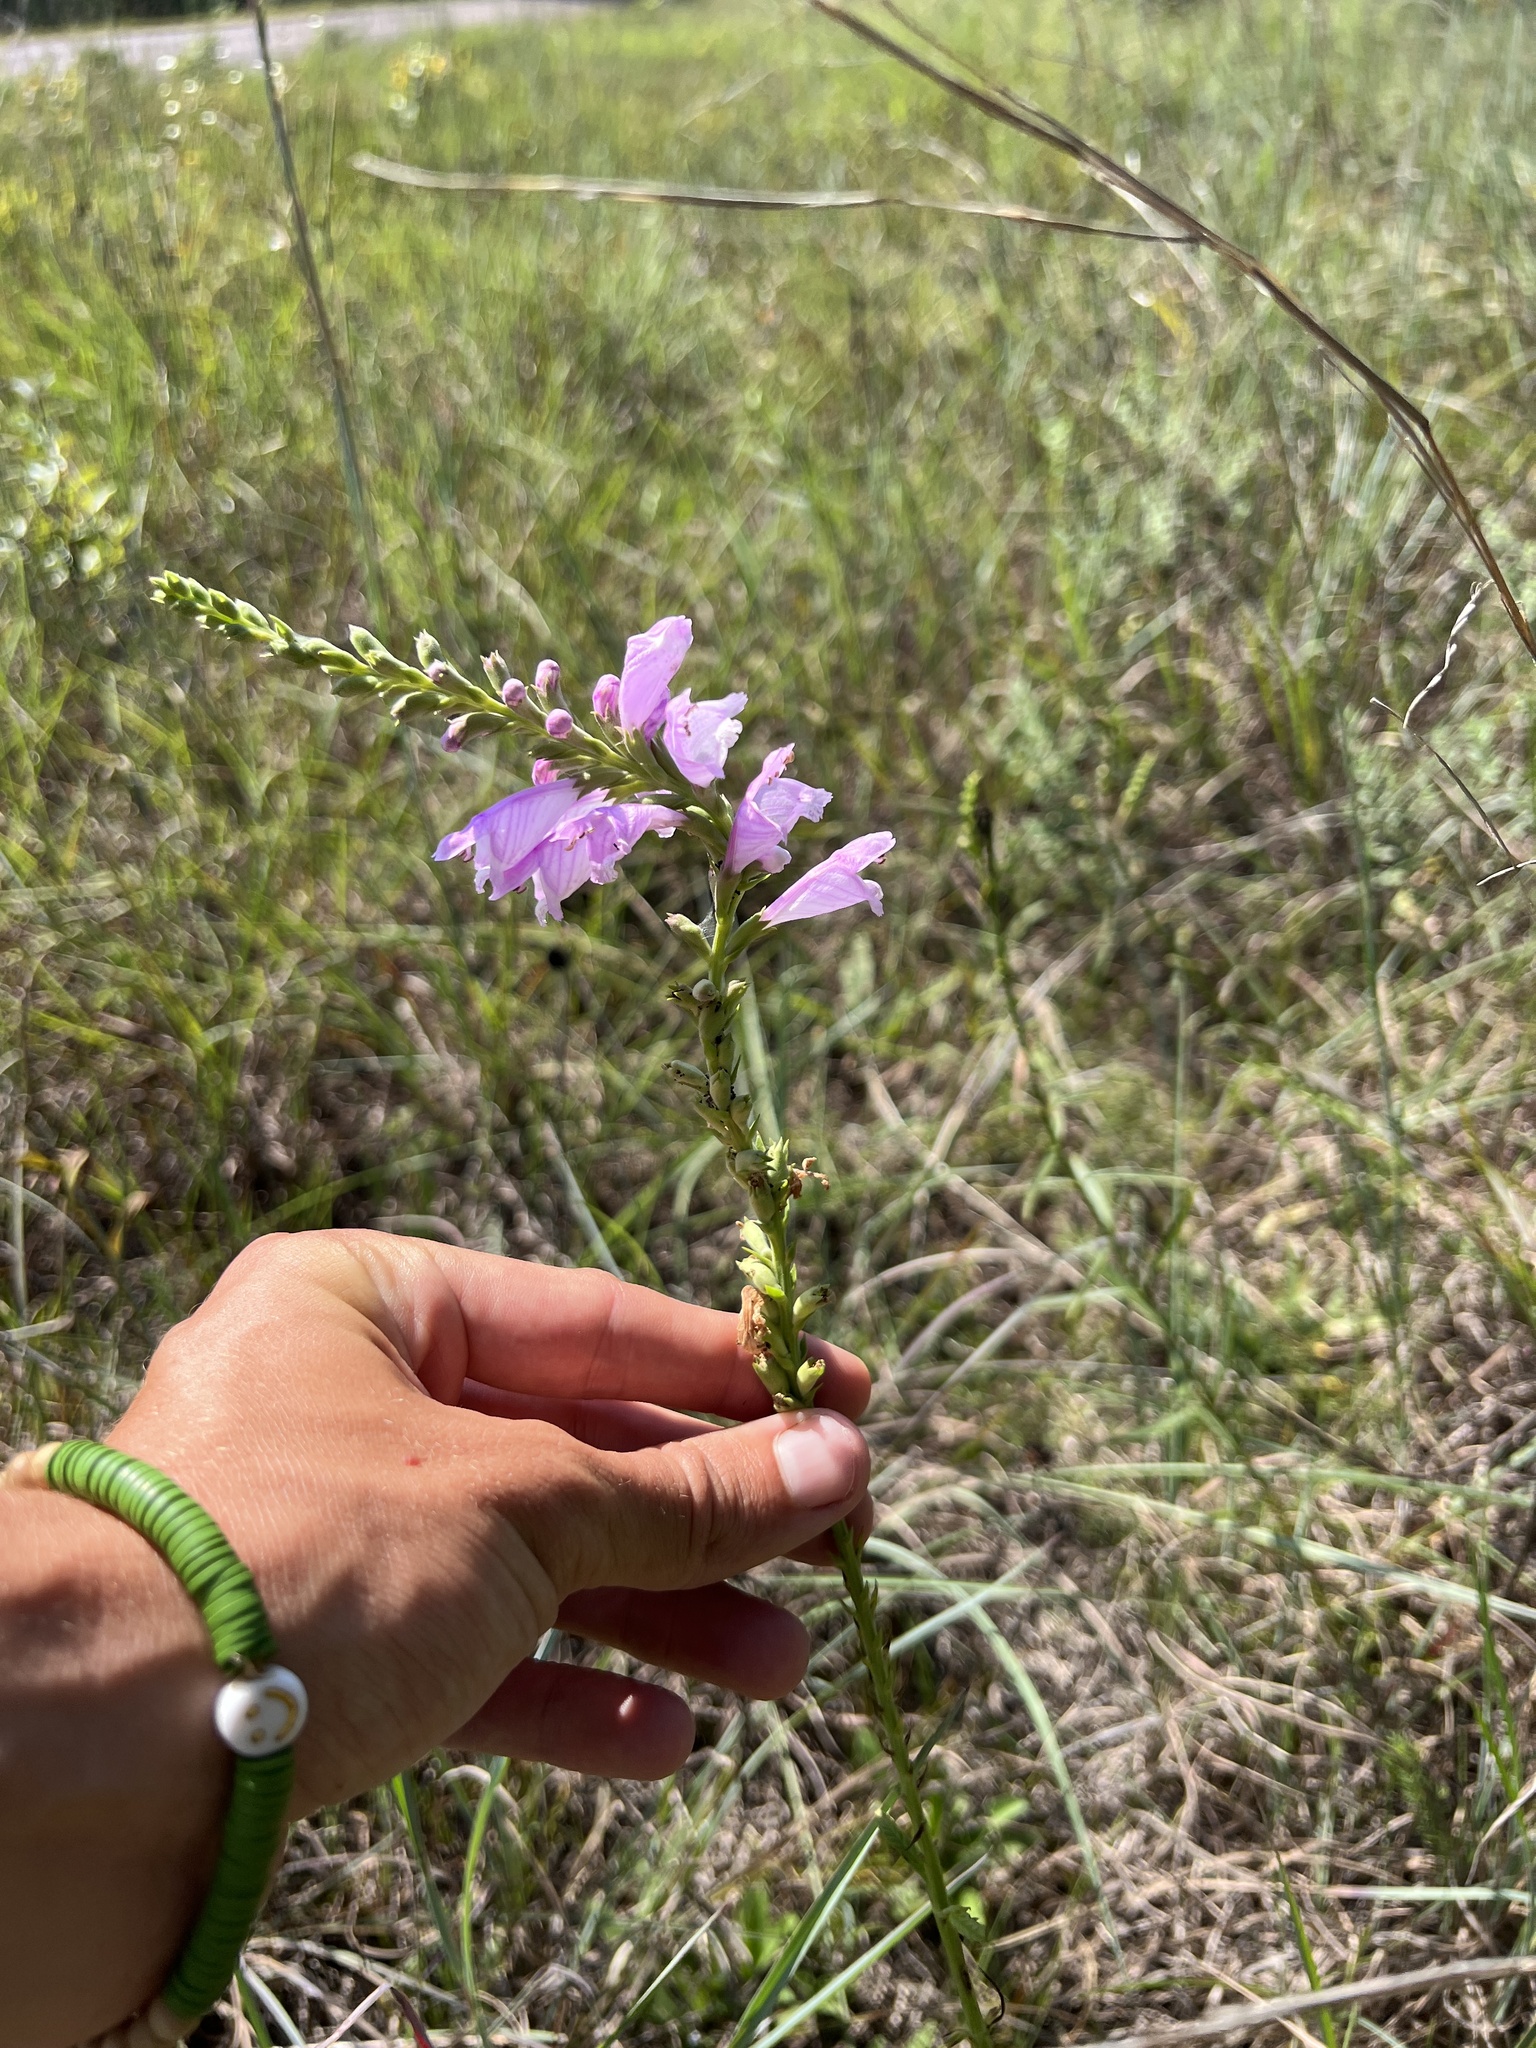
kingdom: Plantae
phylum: Tracheophyta
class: Magnoliopsida
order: Lamiales
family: Lamiaceae
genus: Physostegia
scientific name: Physostegia virginiana
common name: Obedient-plant
